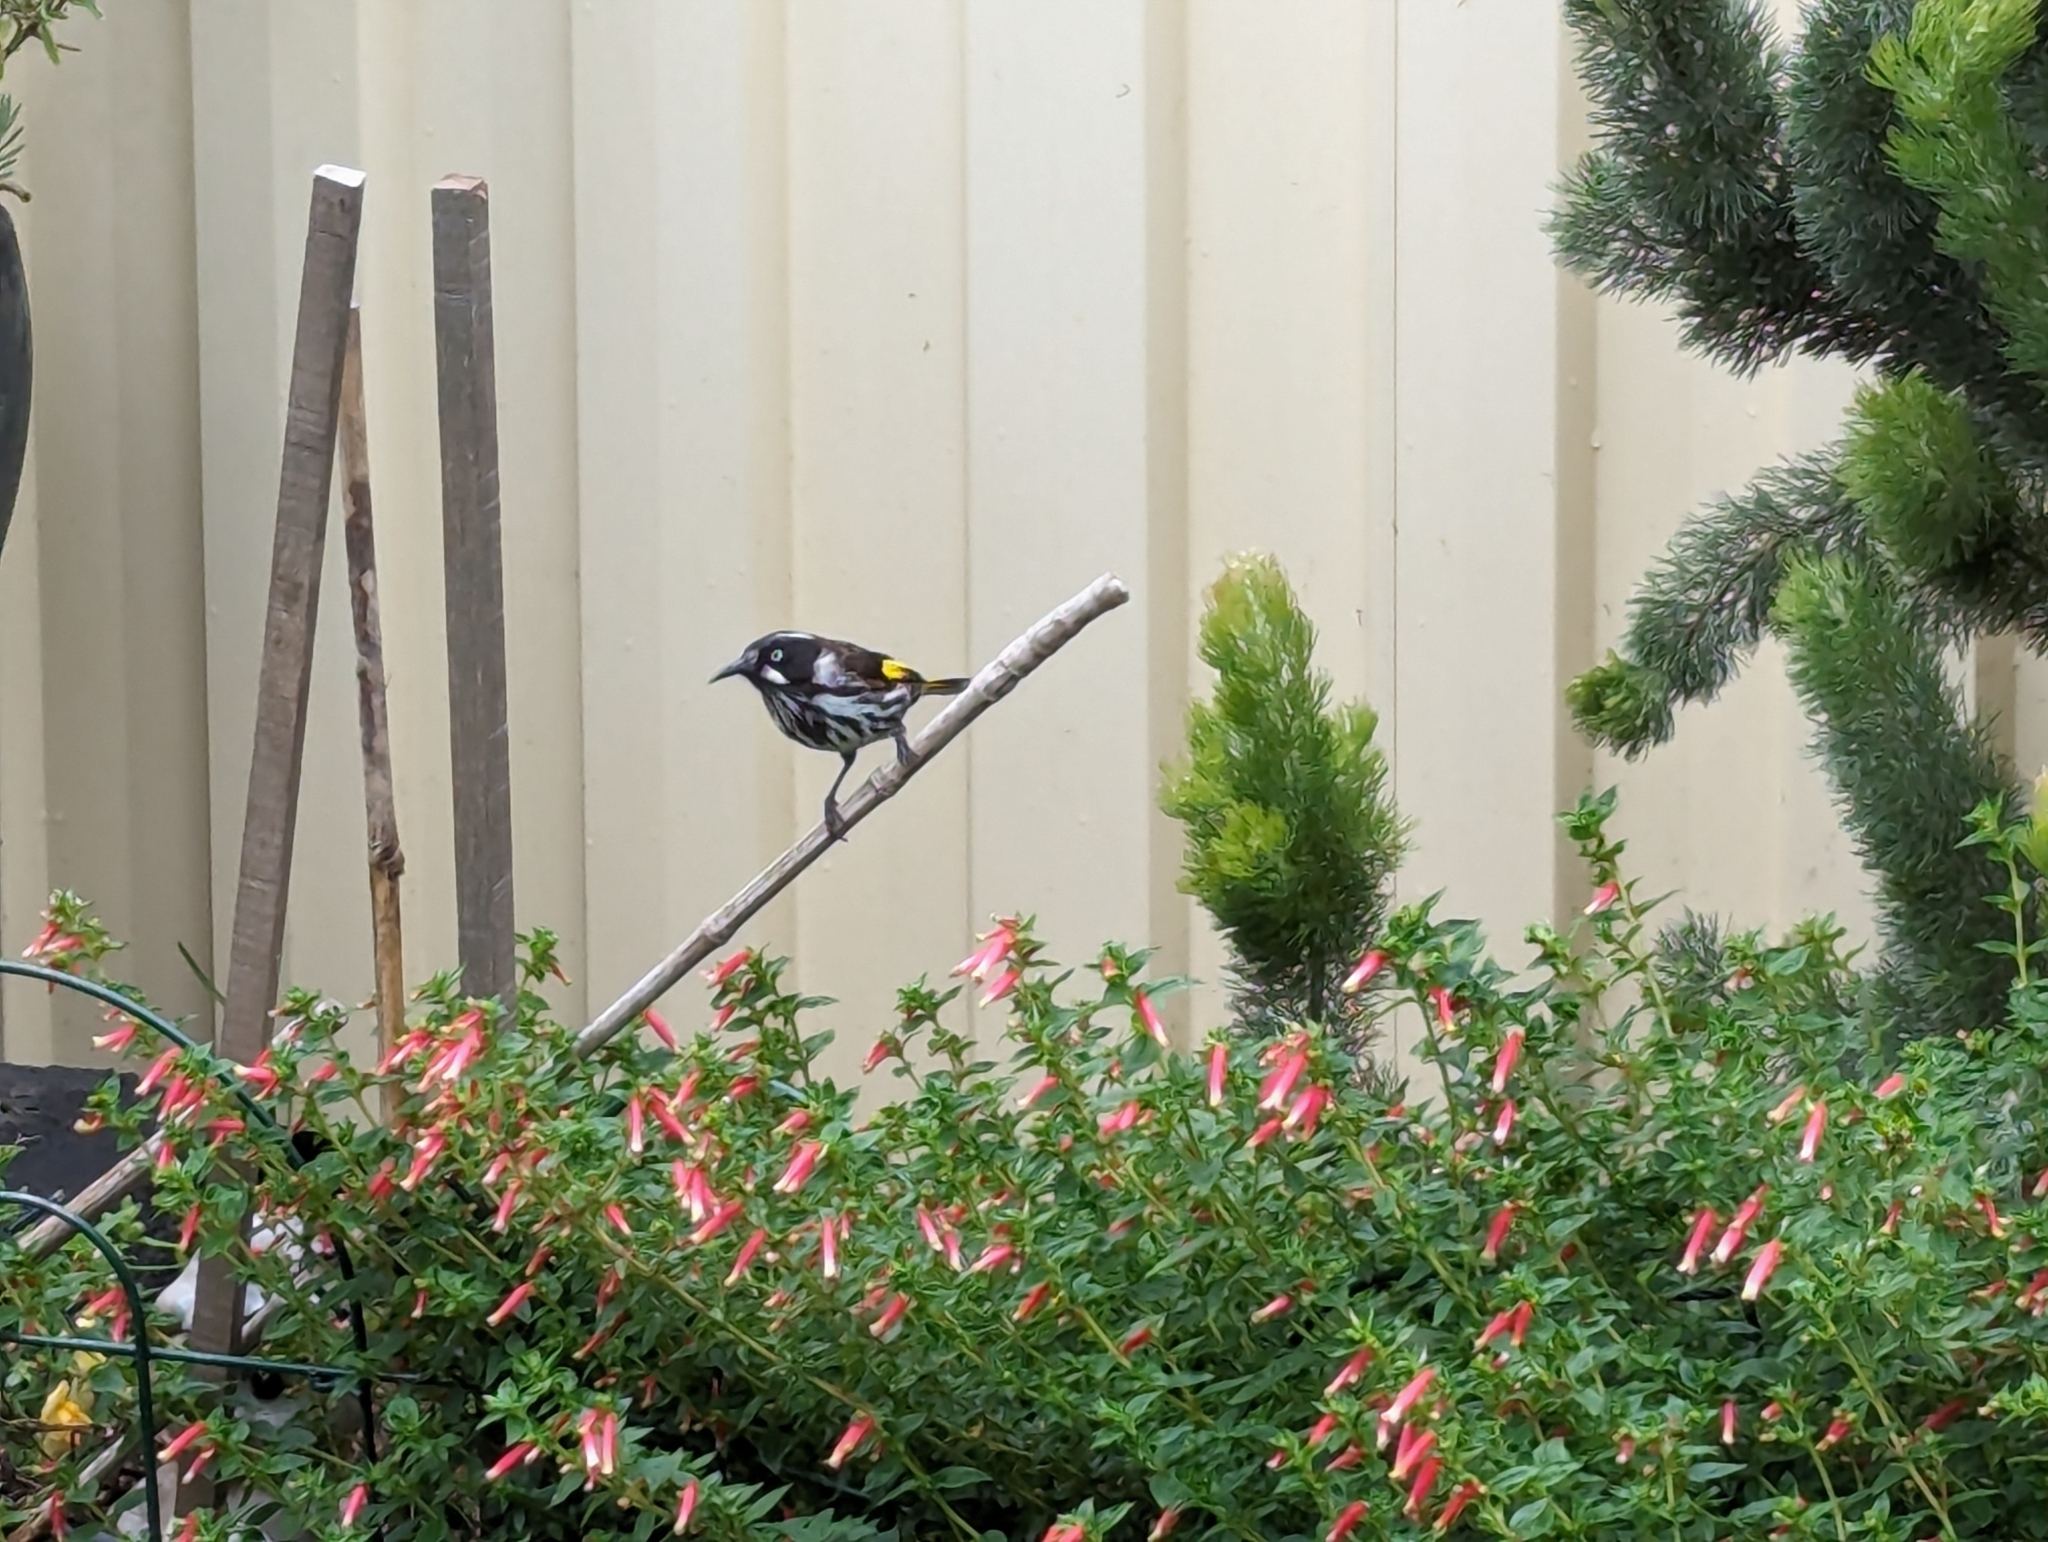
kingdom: Animalia
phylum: Chordata
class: Aves
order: Passeriformes
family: Meliphagidae
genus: Phylidonyris
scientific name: Phylidonyris novaehollandiae
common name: New holland honeyeater
